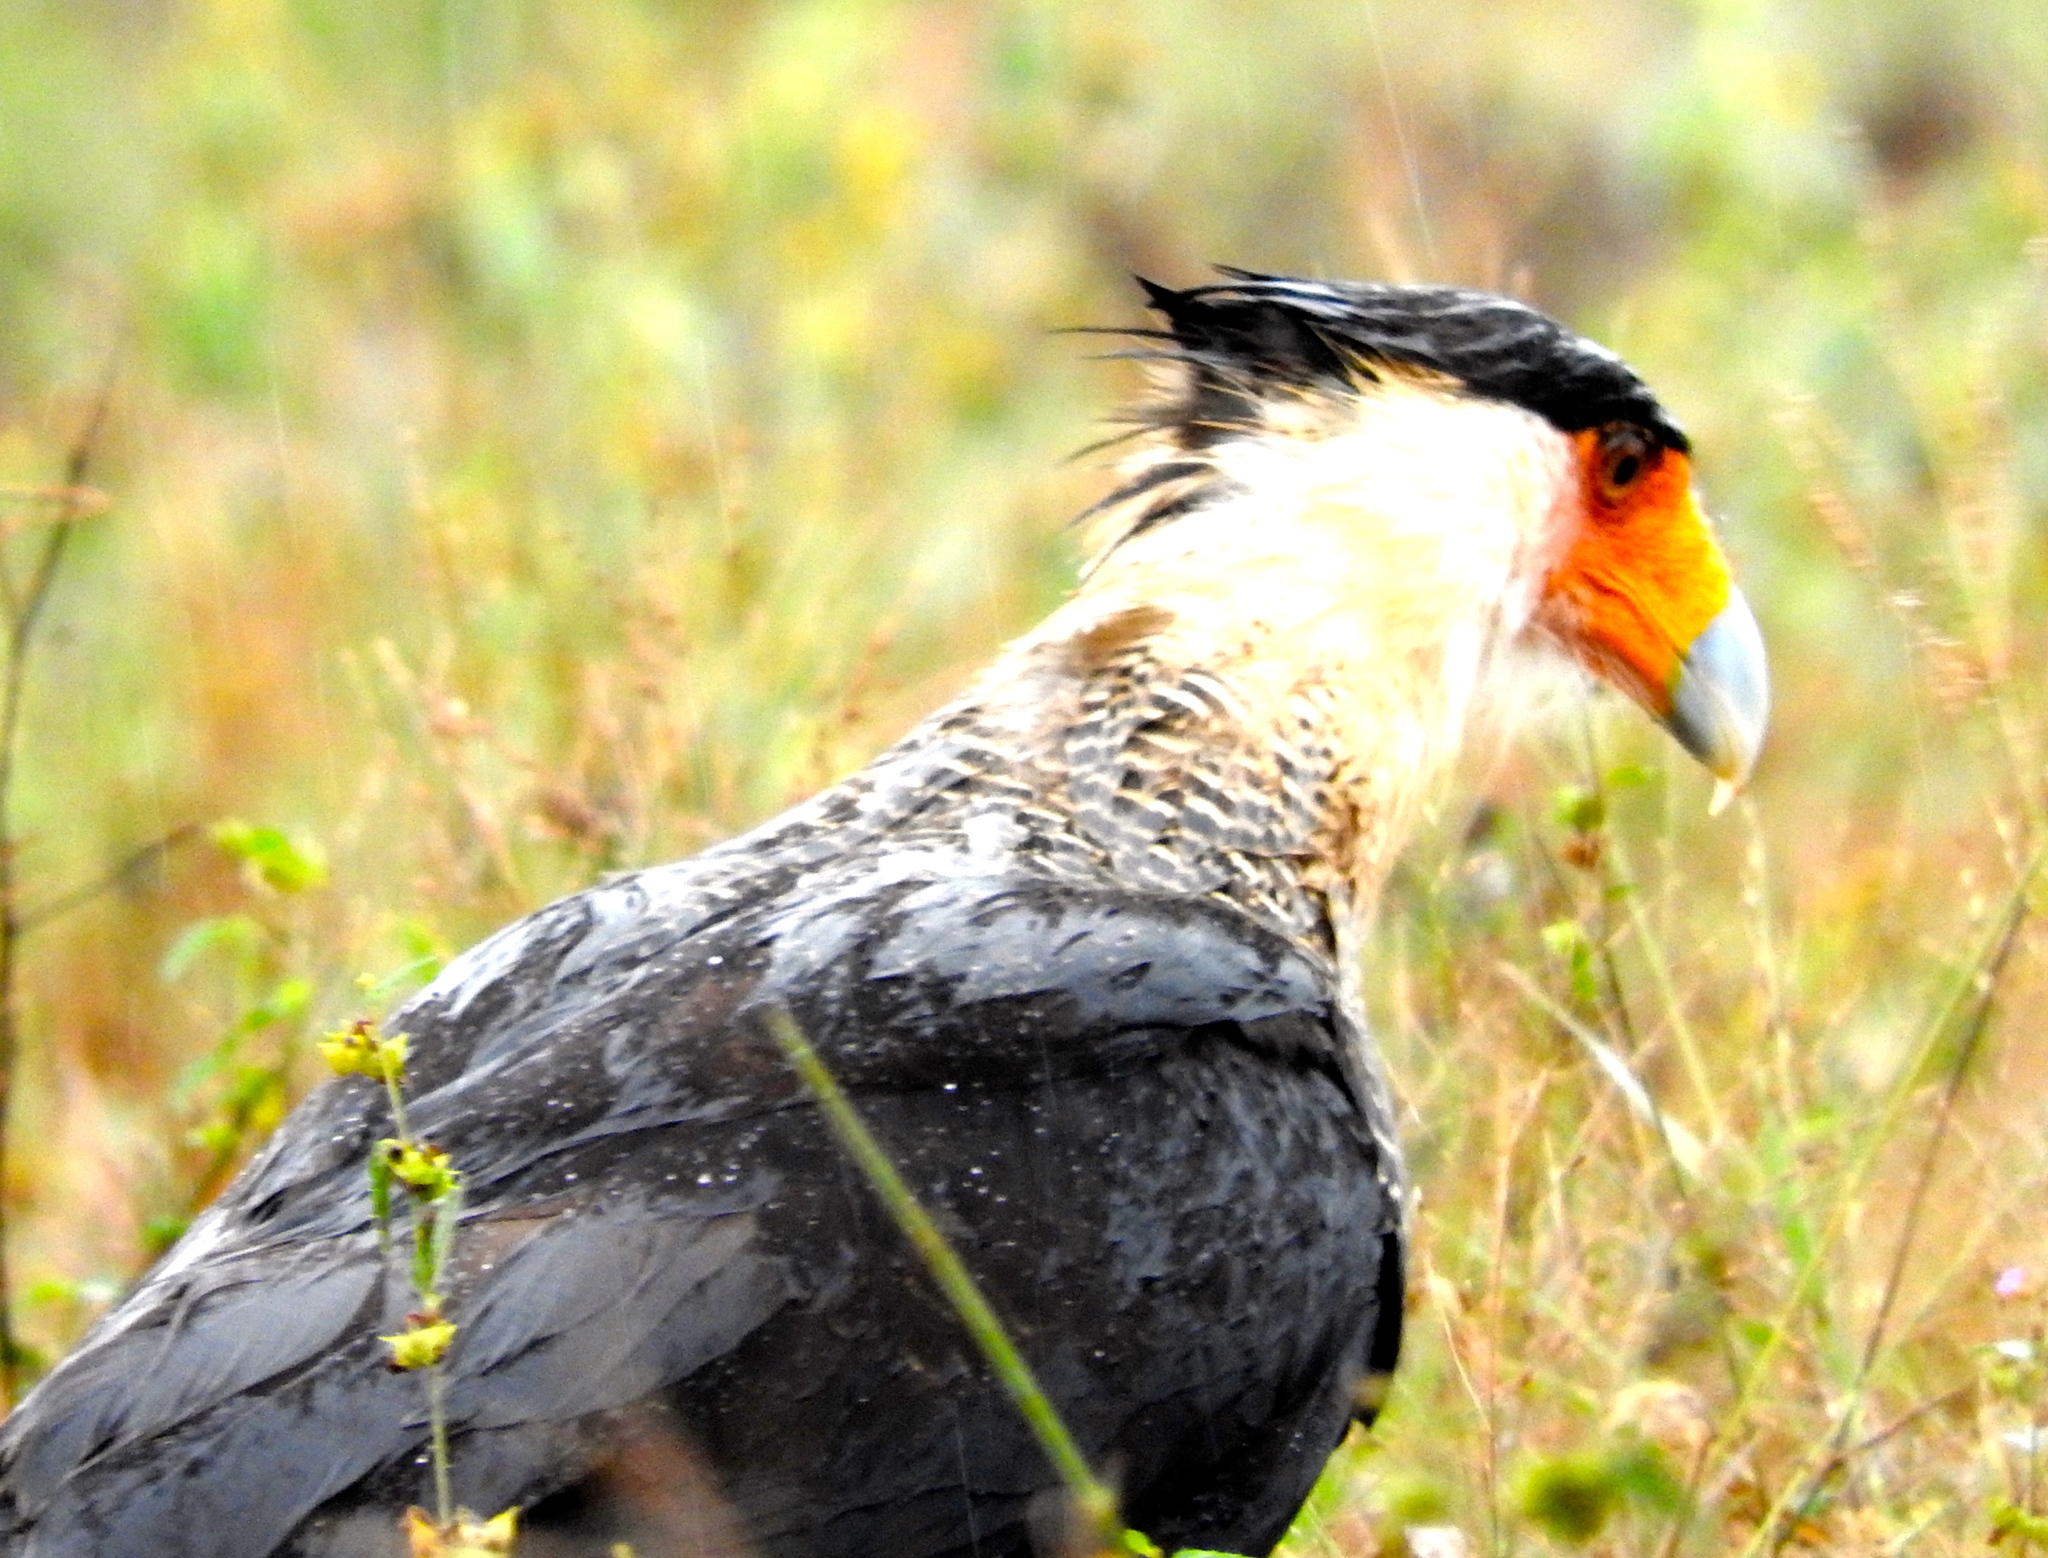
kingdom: Animalia
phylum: Chordata
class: Aves
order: Falconiformes
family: Falconidae
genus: Caracara
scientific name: Caracara plancus
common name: Southern caracara
